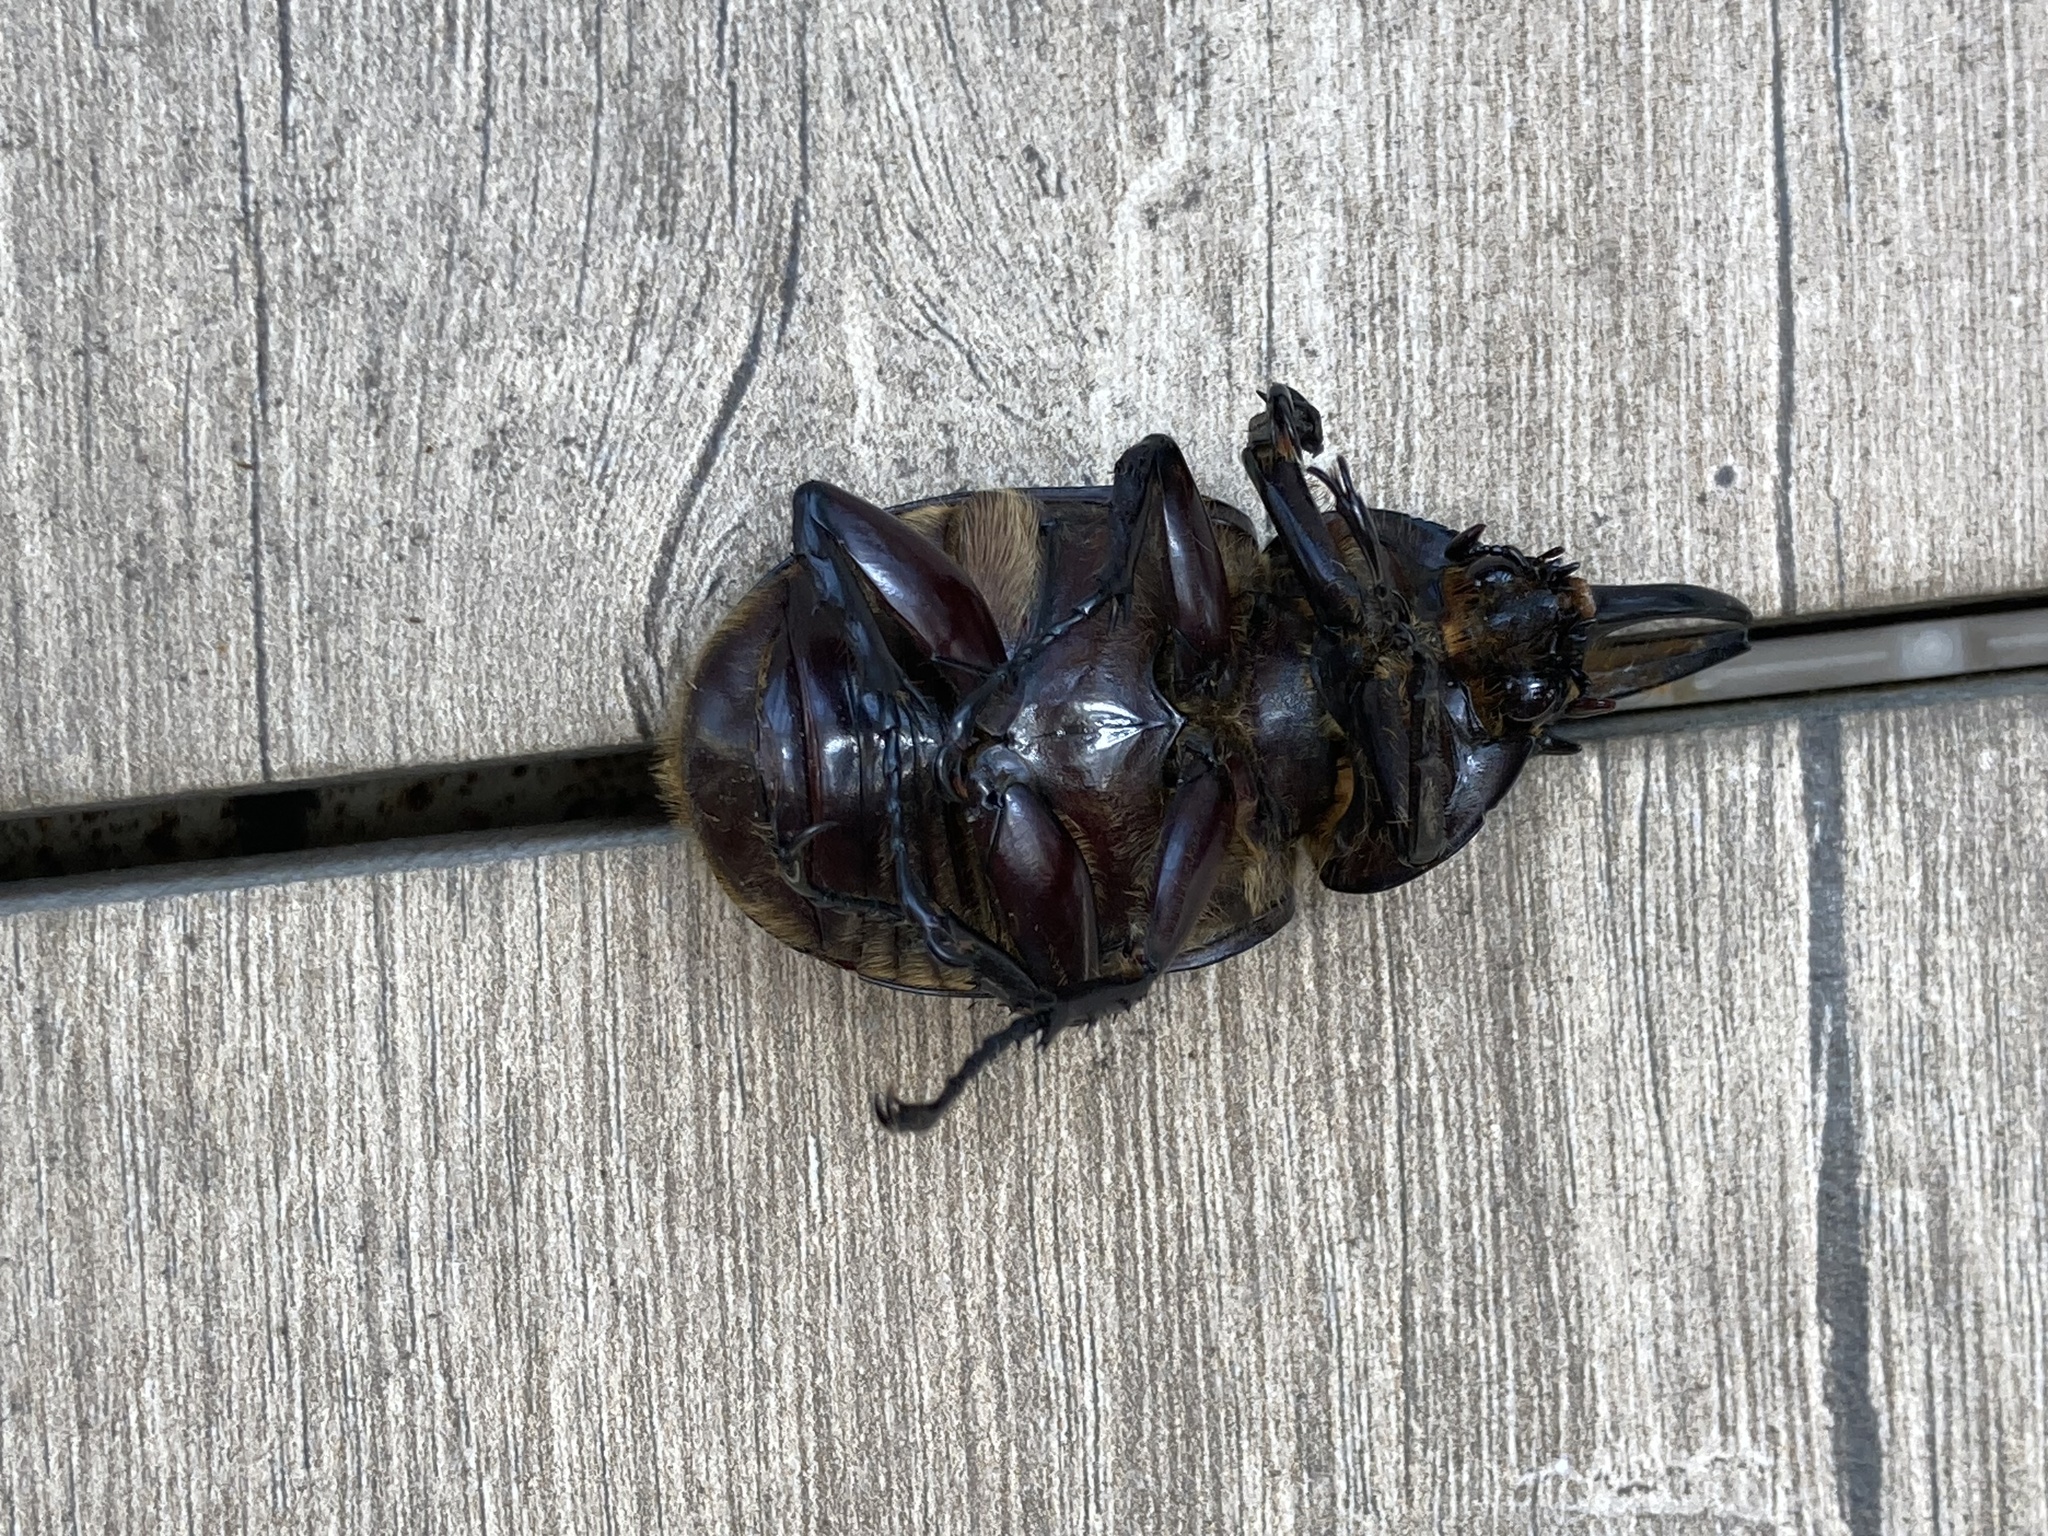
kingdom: Animalia
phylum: Arthropoda
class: Insecta
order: Coleoptera
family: Scarabaeidae
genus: Dynastes
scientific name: Dynastes tityus
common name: Eastern hercules beetle
